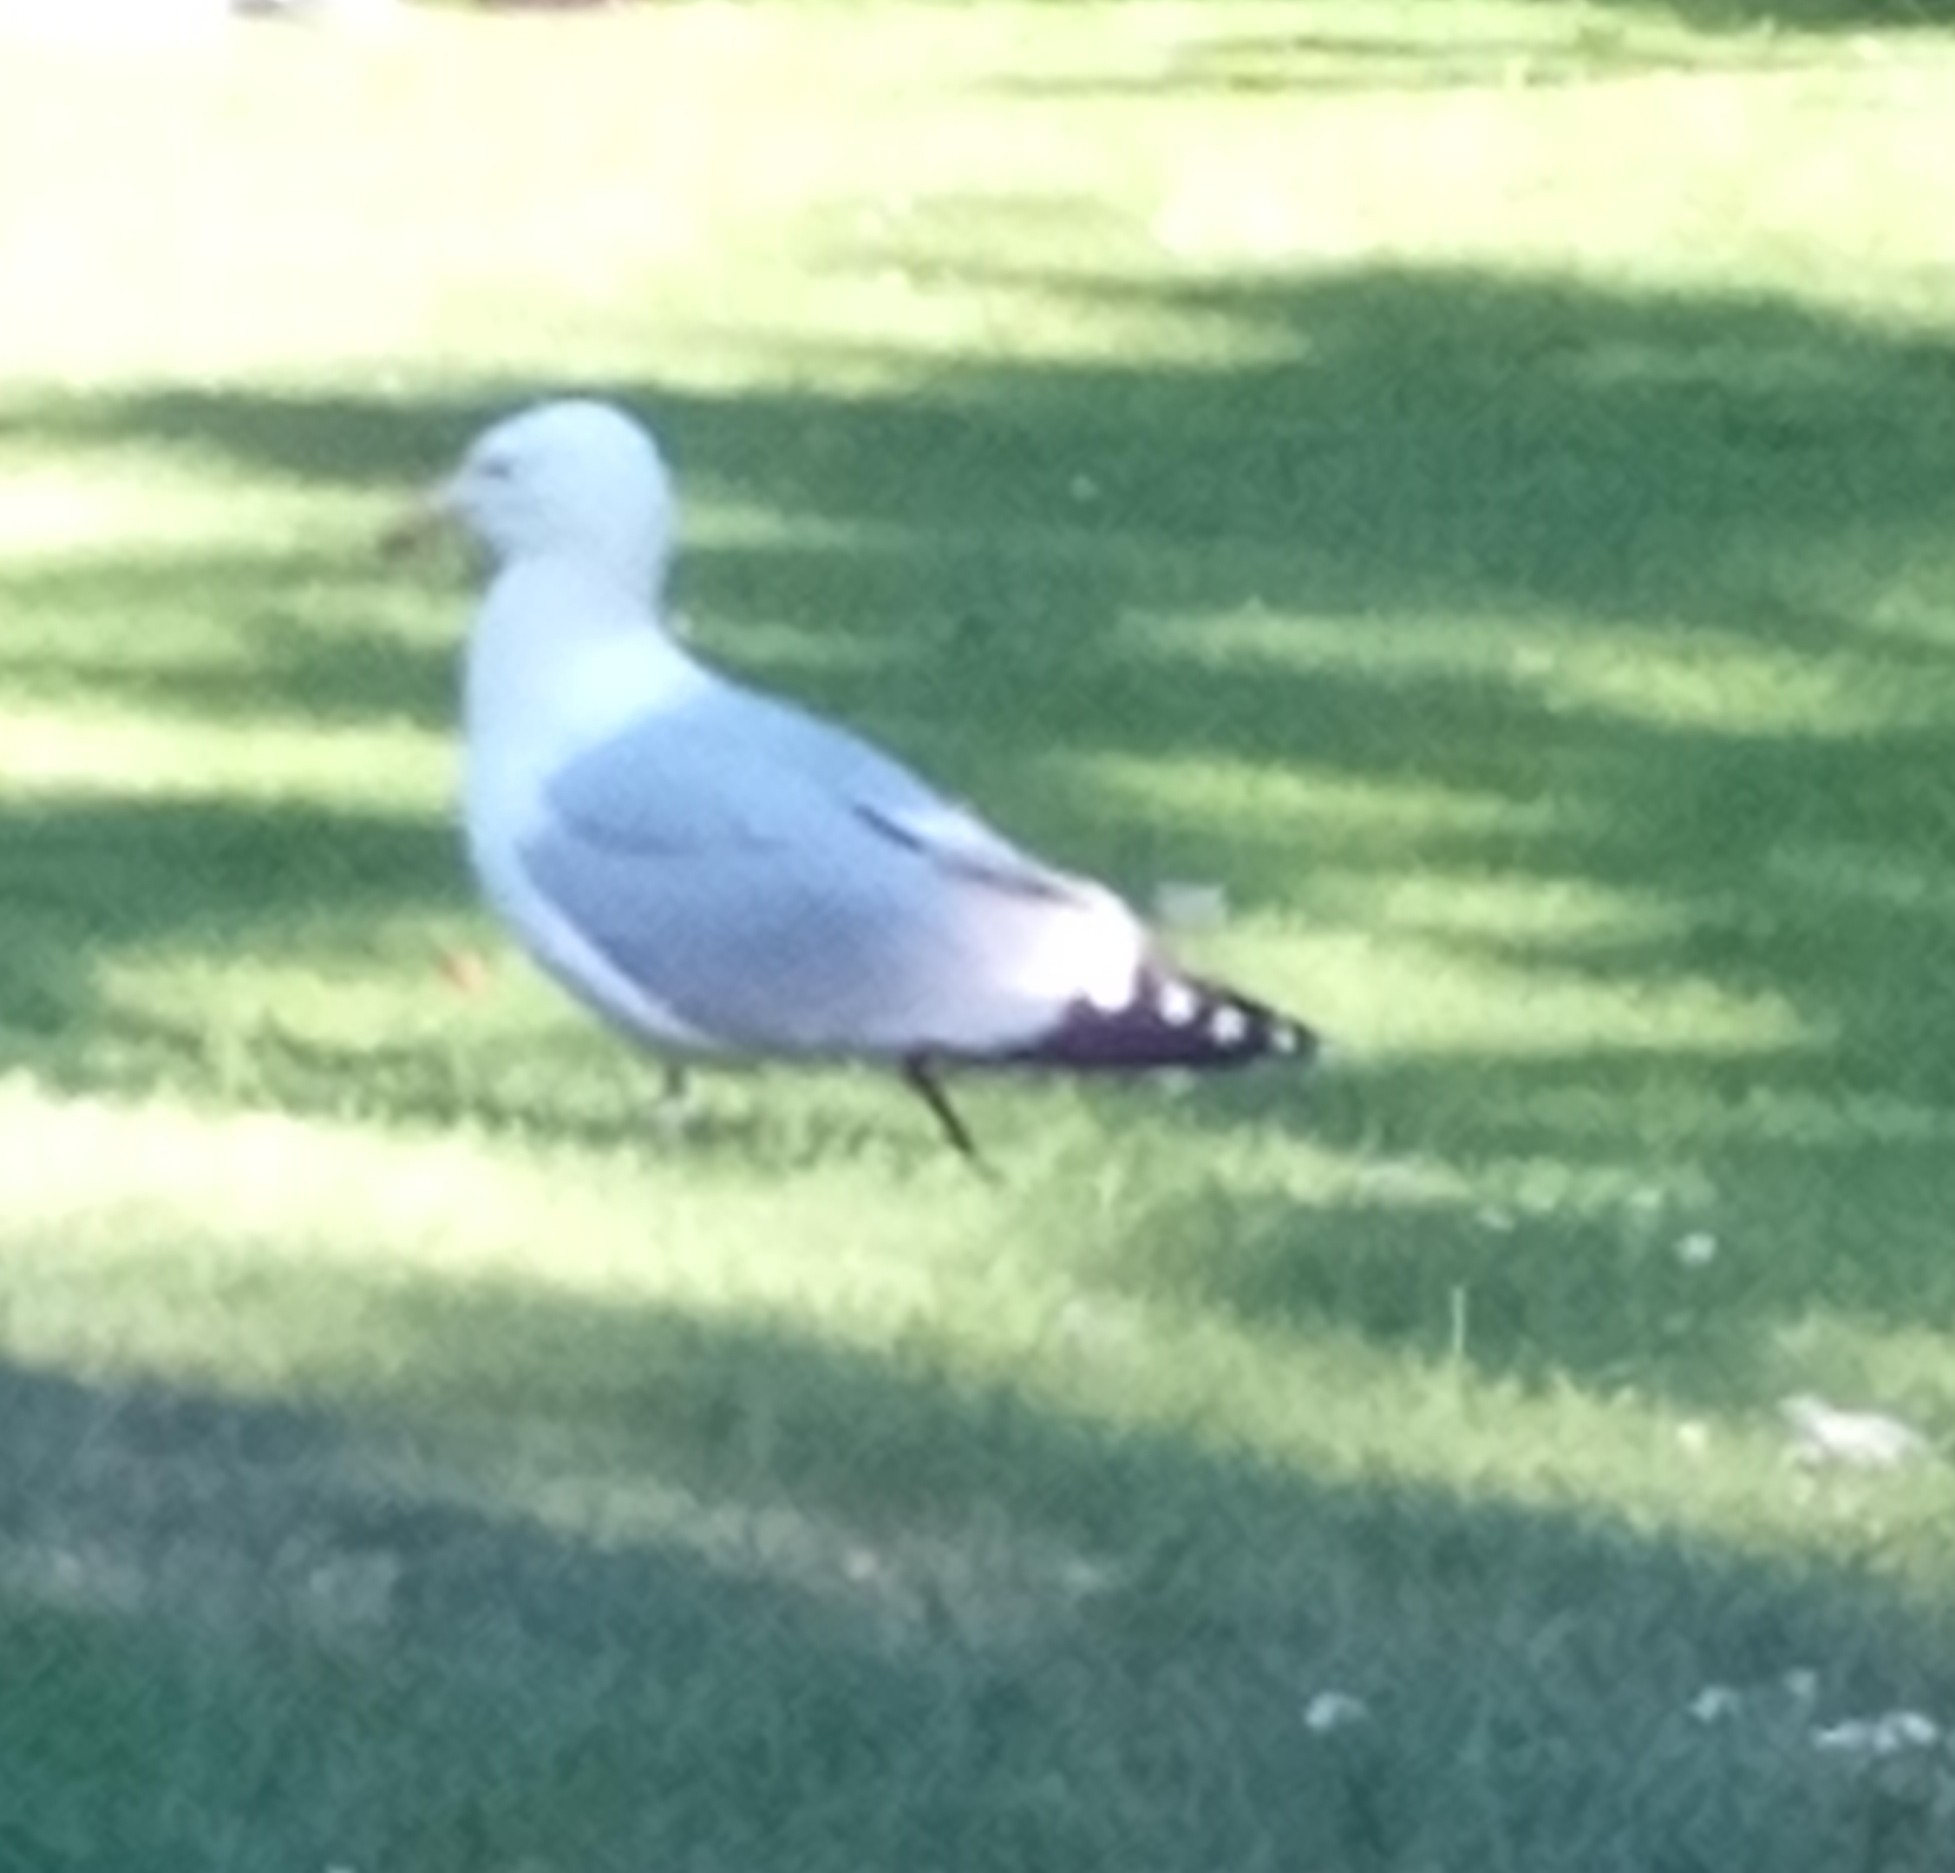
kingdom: Animalia
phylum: Chordata
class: Aves
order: Charadriiformes
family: Laridae
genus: Larus
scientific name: Larus argentatus
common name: Herring gull
